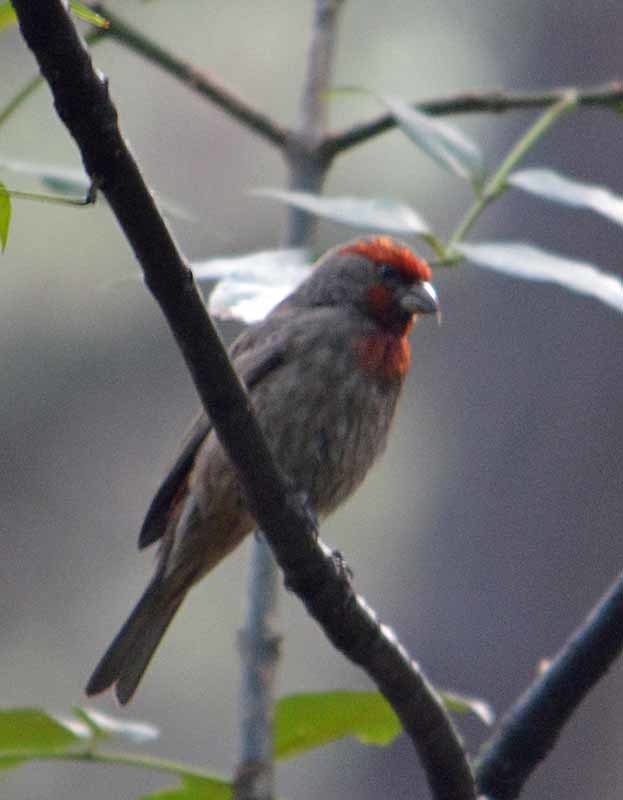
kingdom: Animalia
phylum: Chordata
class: Aves
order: Passeriformes
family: Fringillidae
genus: Haemorhous
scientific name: Haemorhous mexicanus
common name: House finch
